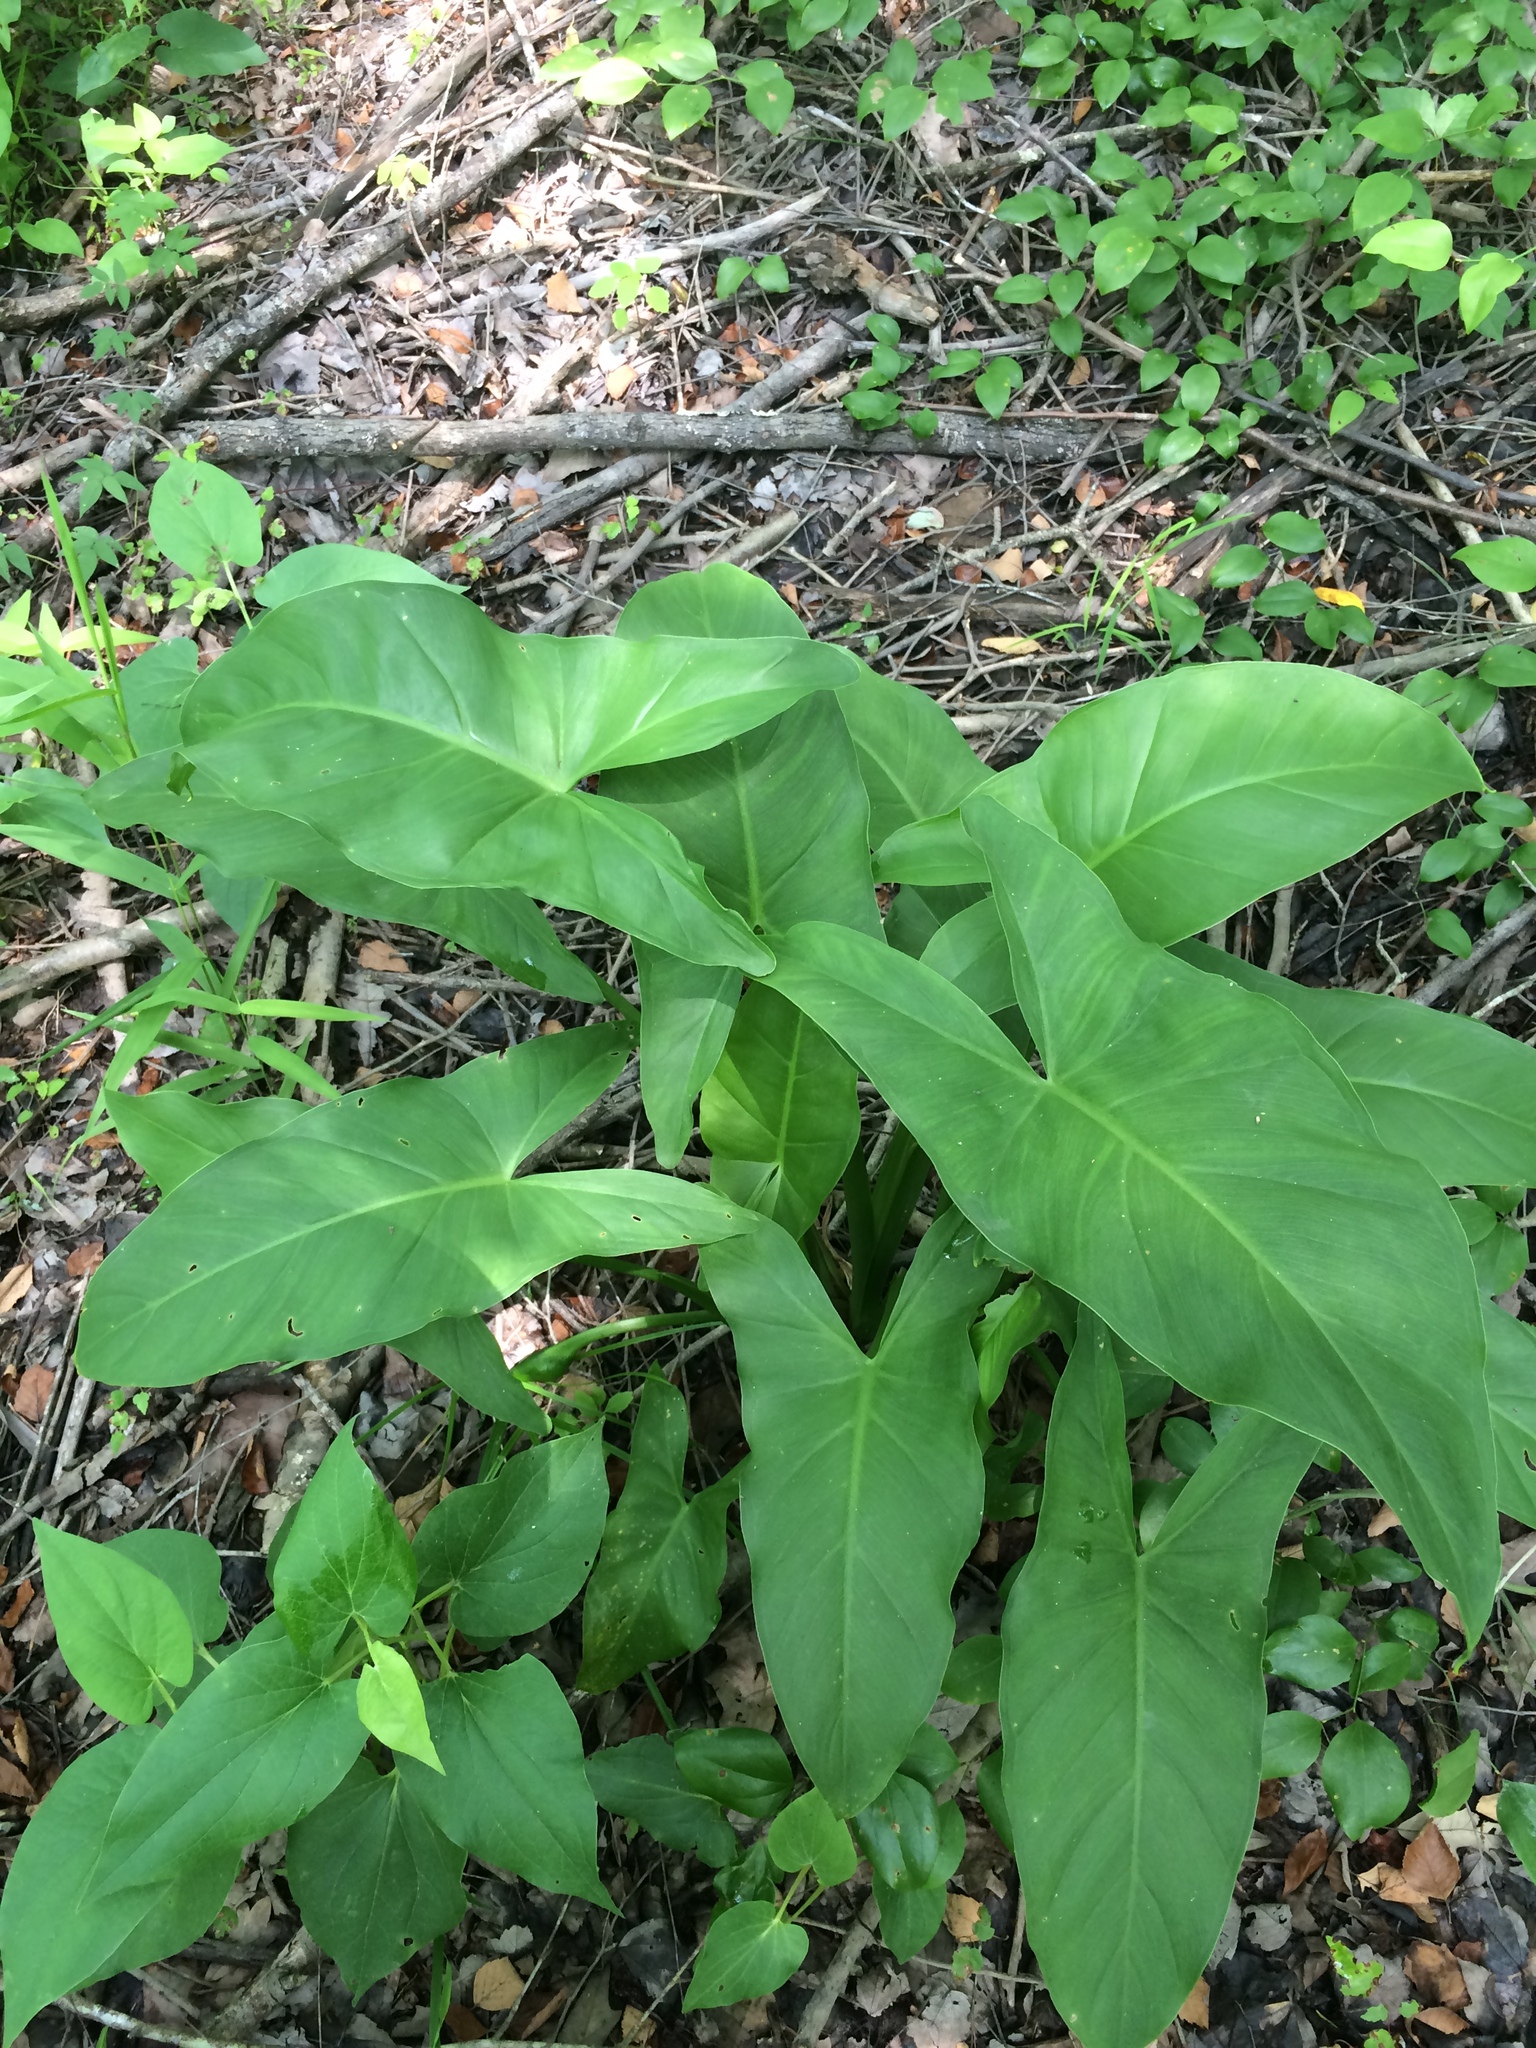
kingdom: Plantae
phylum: Tracheophyta
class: Liliopsida
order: Alismatales
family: Araceae
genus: Peltandra
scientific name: Peltandra virginica
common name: Arrow arum
